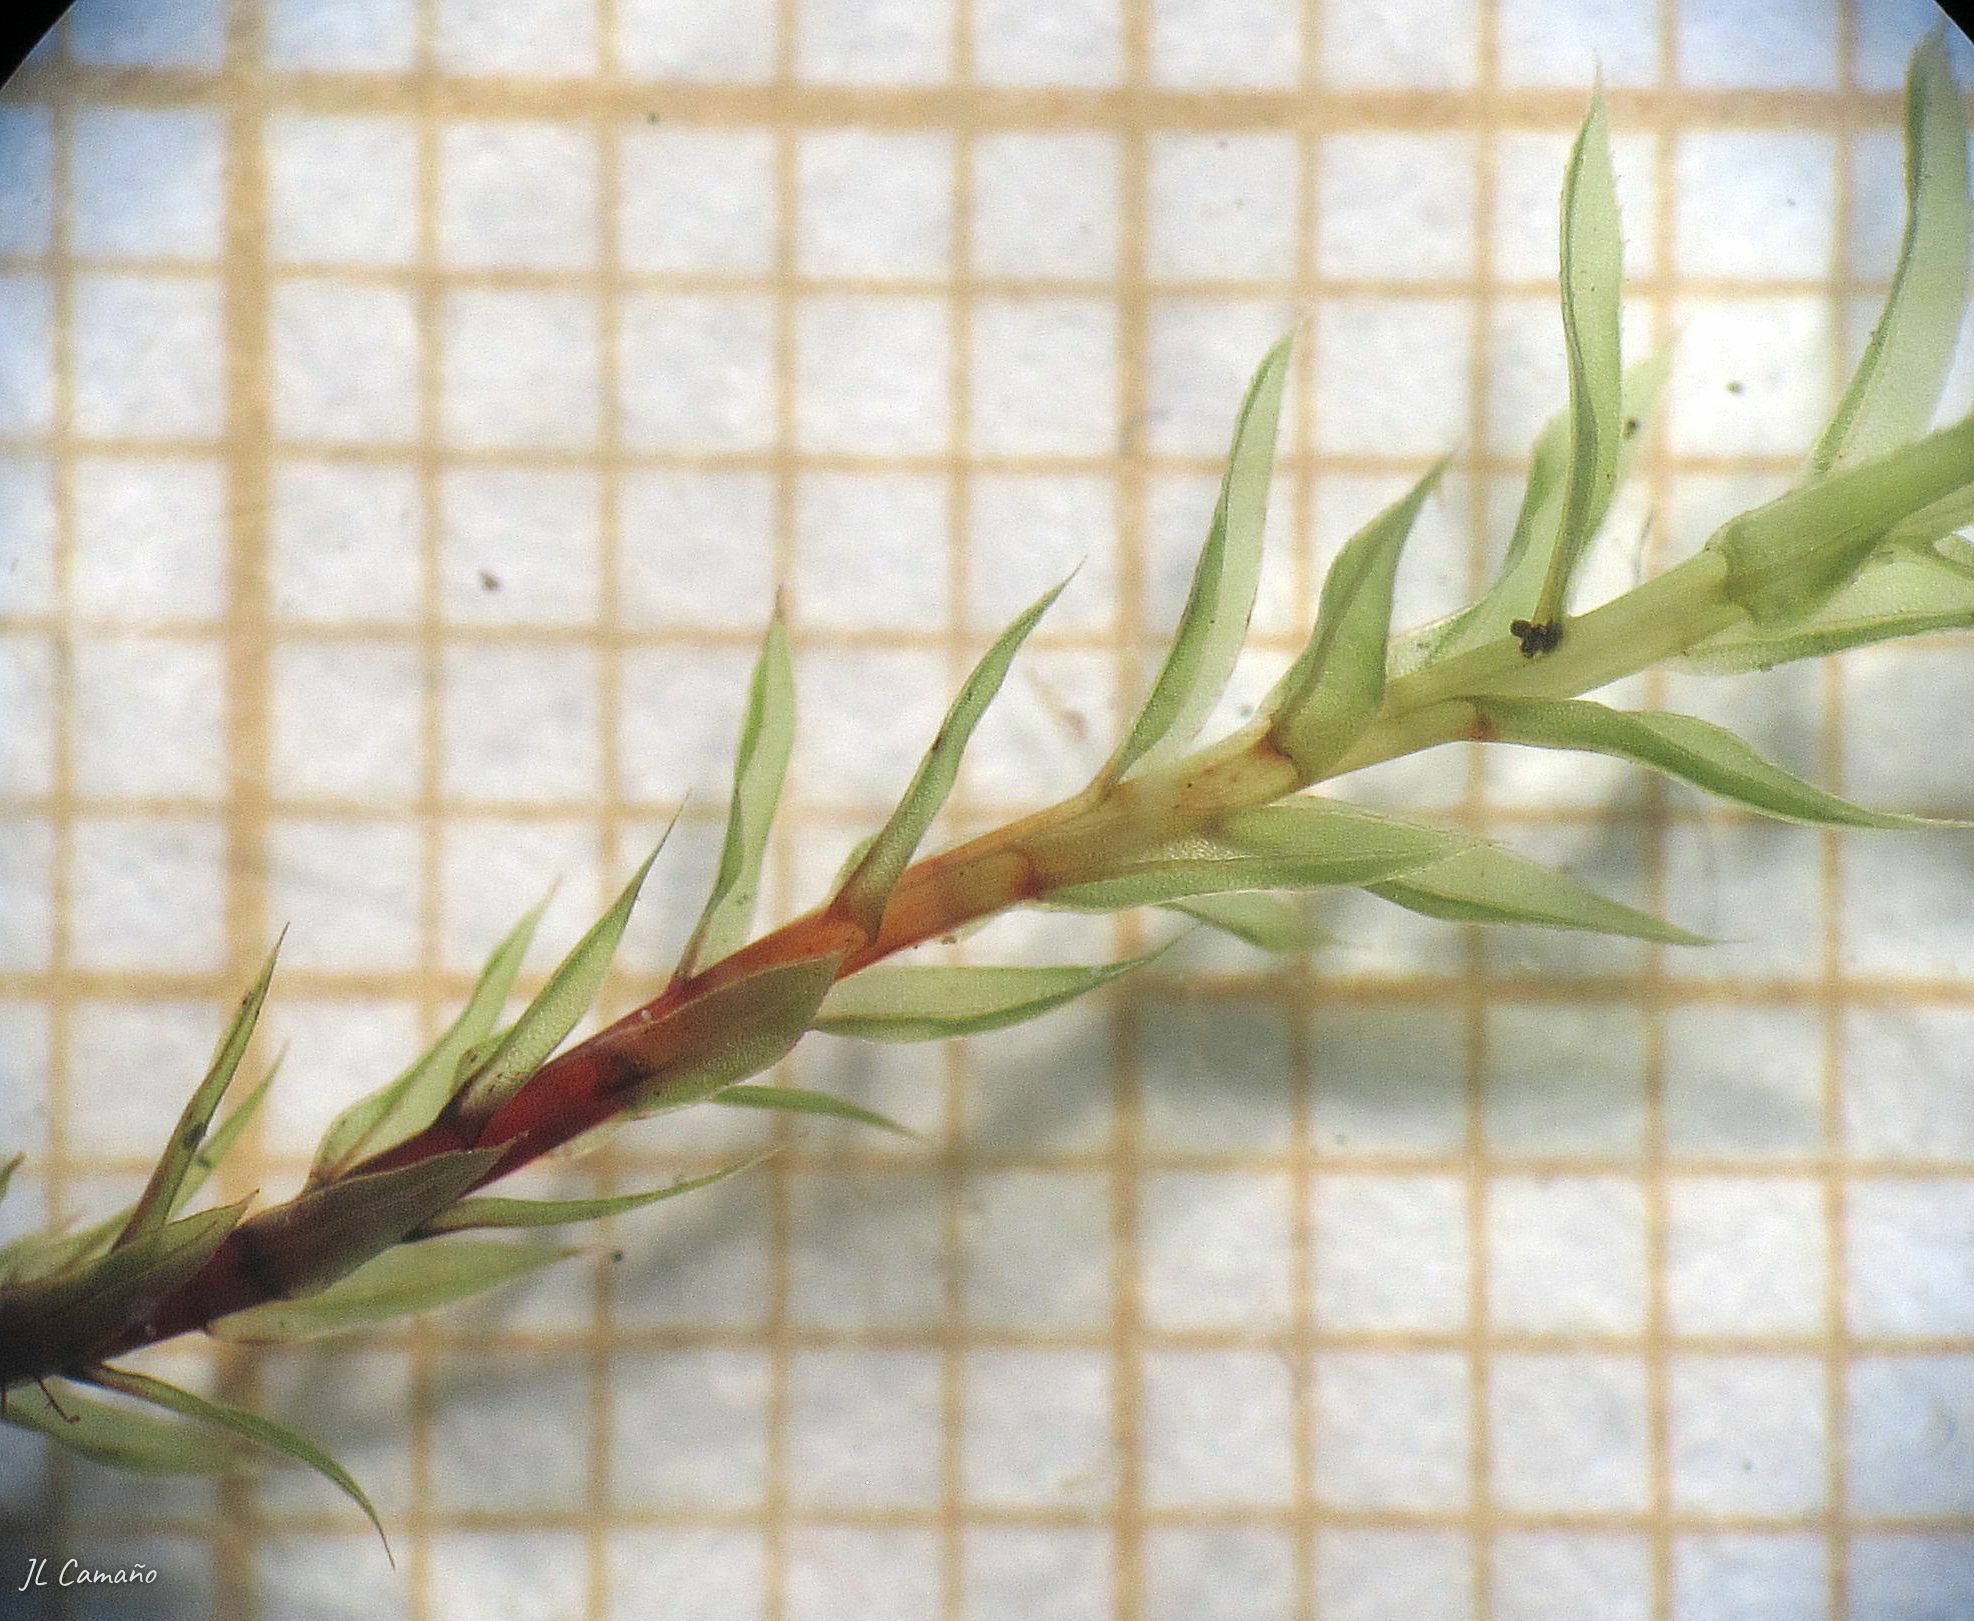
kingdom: Plantae
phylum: Bryophyta
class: Bryopsida
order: Bryales
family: Mniaceae
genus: Mnium
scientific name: Mnium hornum
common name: Swan's-neck leafy moss
